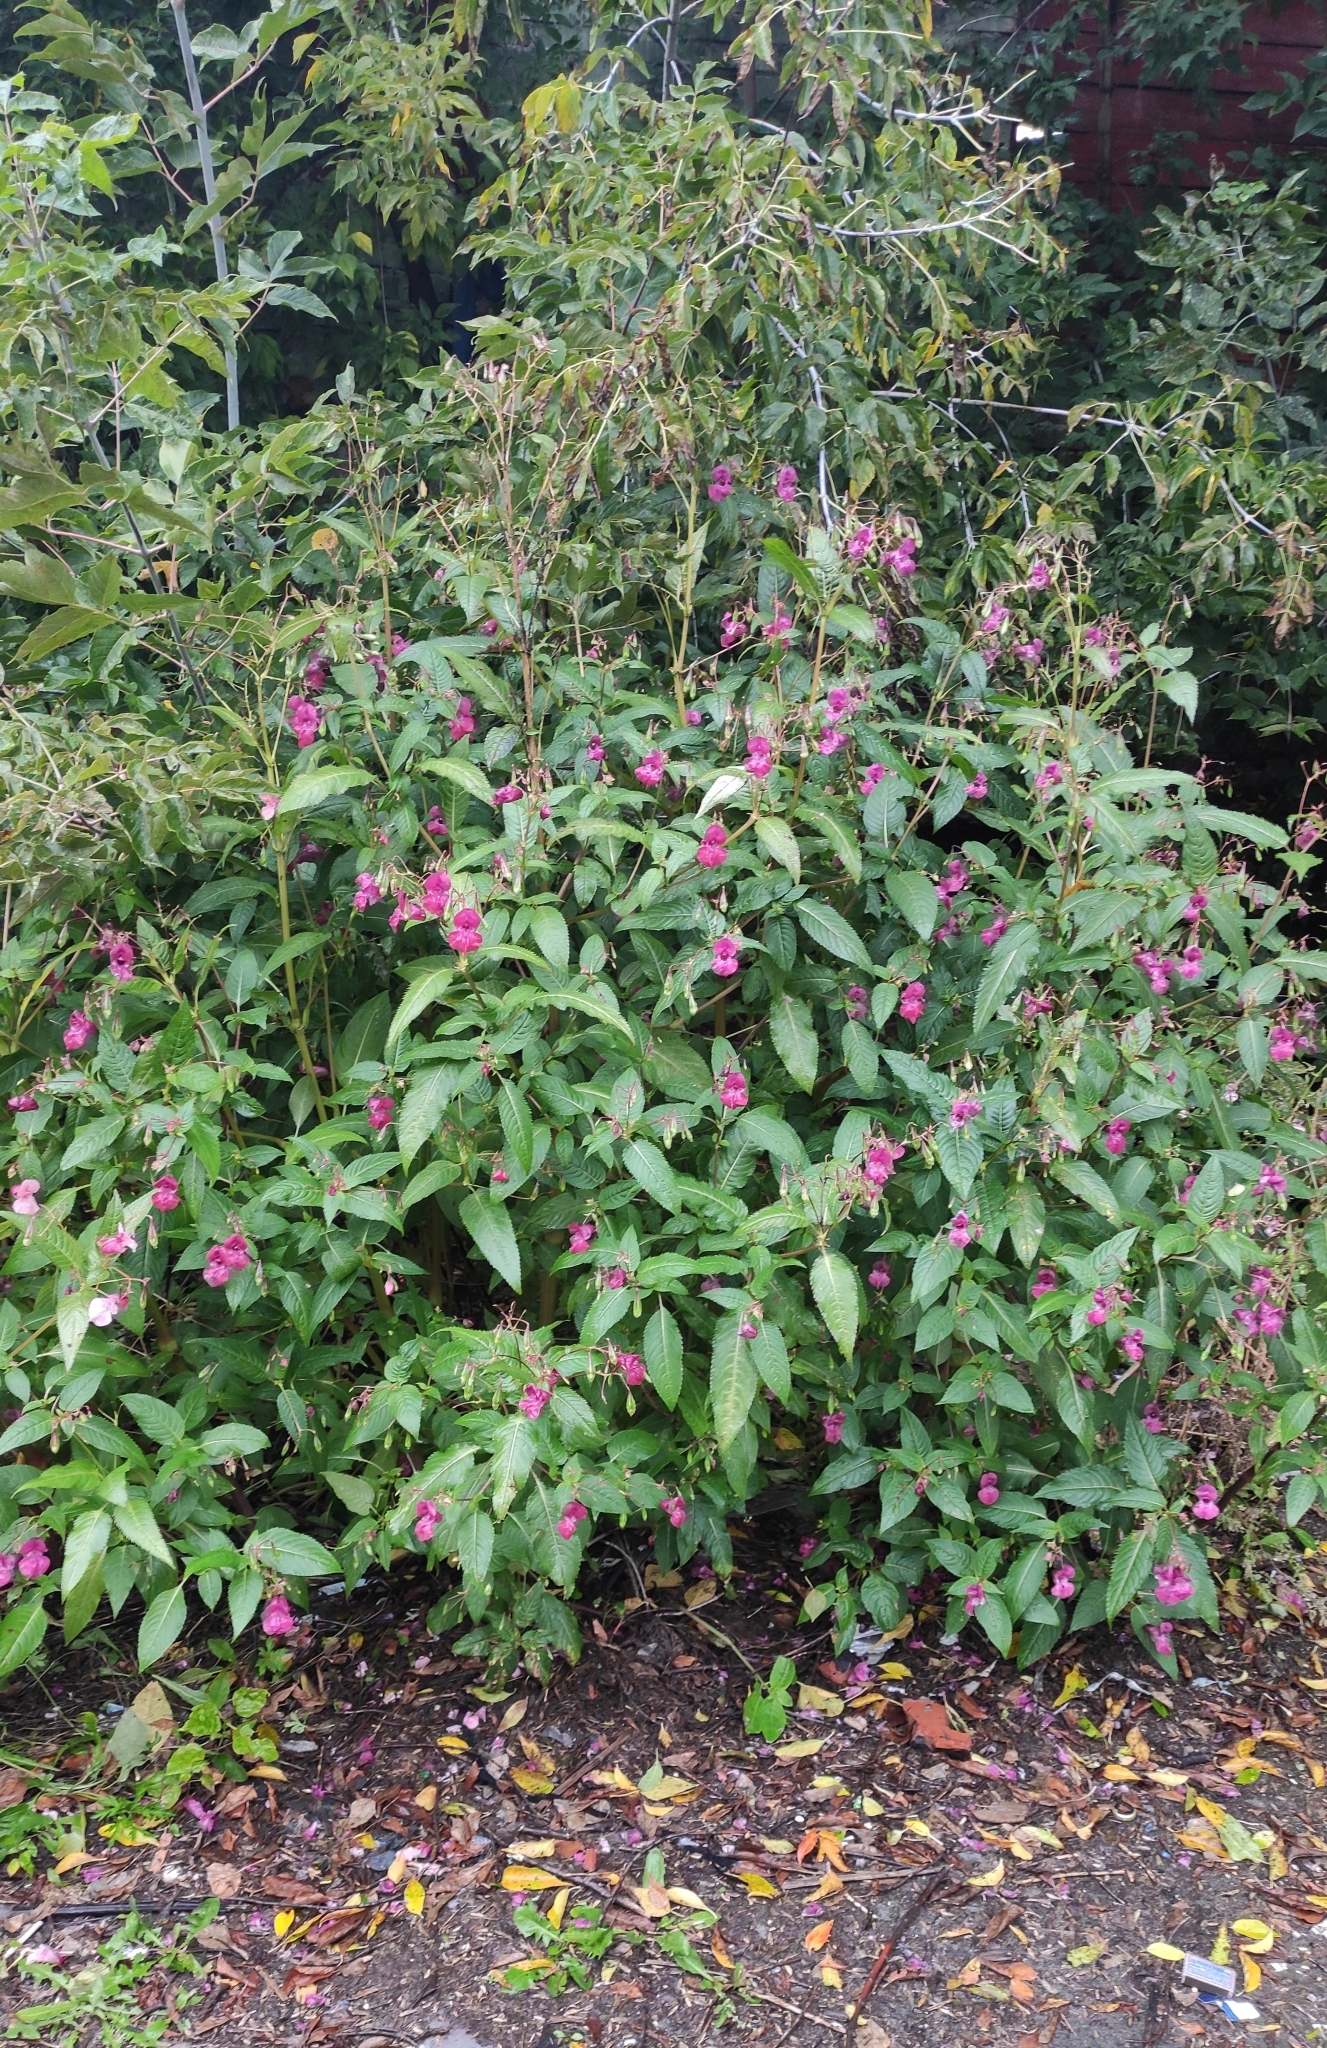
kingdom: Plantae
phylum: Tracheophyta
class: Magnoliopsida
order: Ericales
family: Balsaminaceae
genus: Impatiens
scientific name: Impatiens glandulifera
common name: Himalayan balsam
